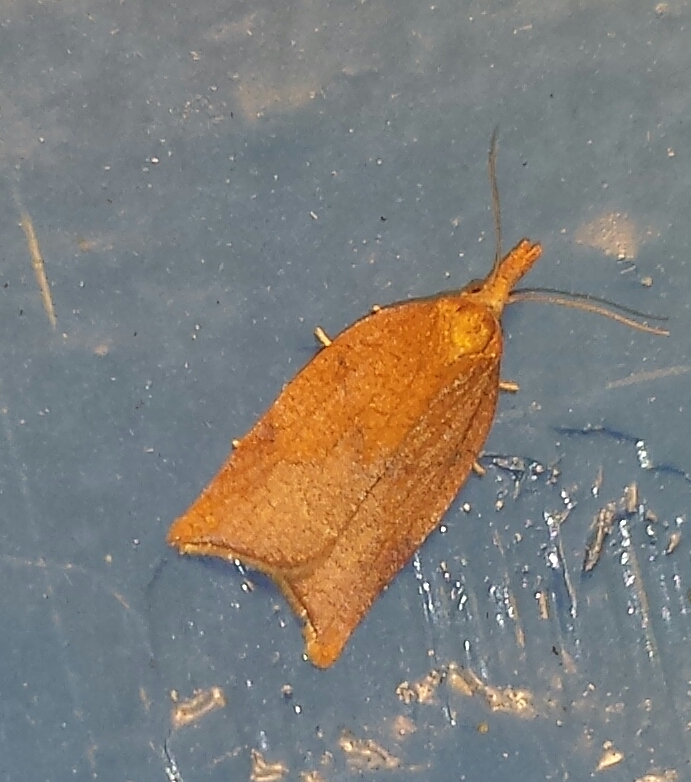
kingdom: Animalia
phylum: Arthropoda
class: Insecta
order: Lepidoptera
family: Tortricidae
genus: Sparganothis
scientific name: Sparganothis boweri
